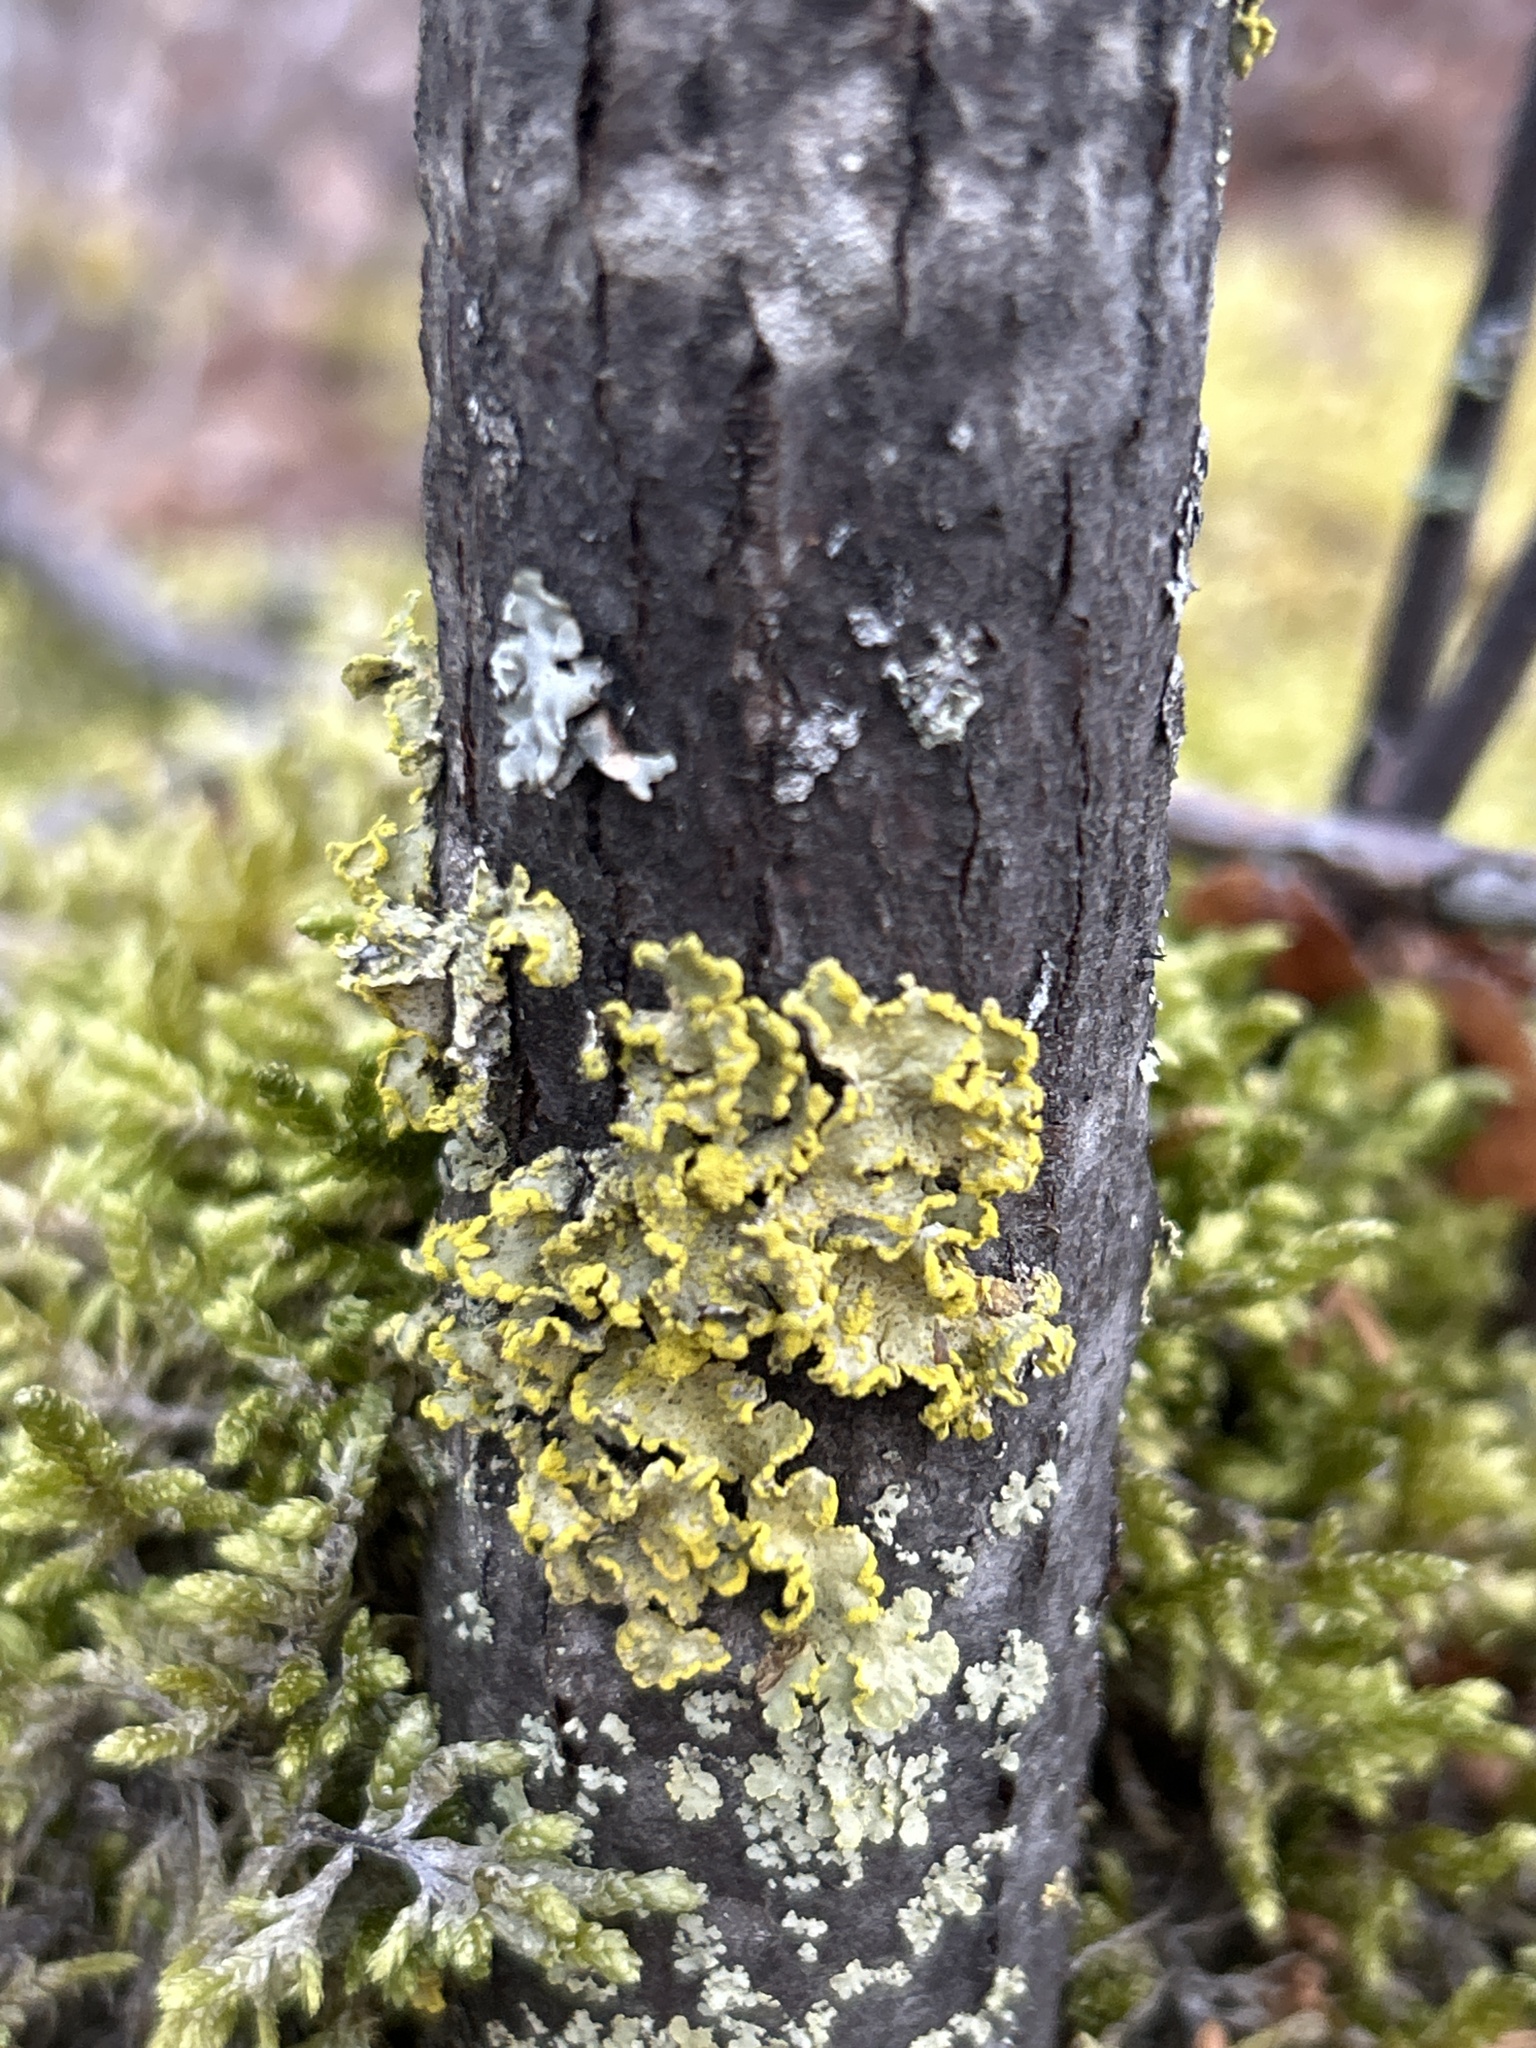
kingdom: Fungi
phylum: Ascomycota
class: Lecanoromycetes
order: Lecanorales
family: Parmeliaceae
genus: Vulpicida
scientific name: Vulpicida pinastri
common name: Powdered sunshine lichen
